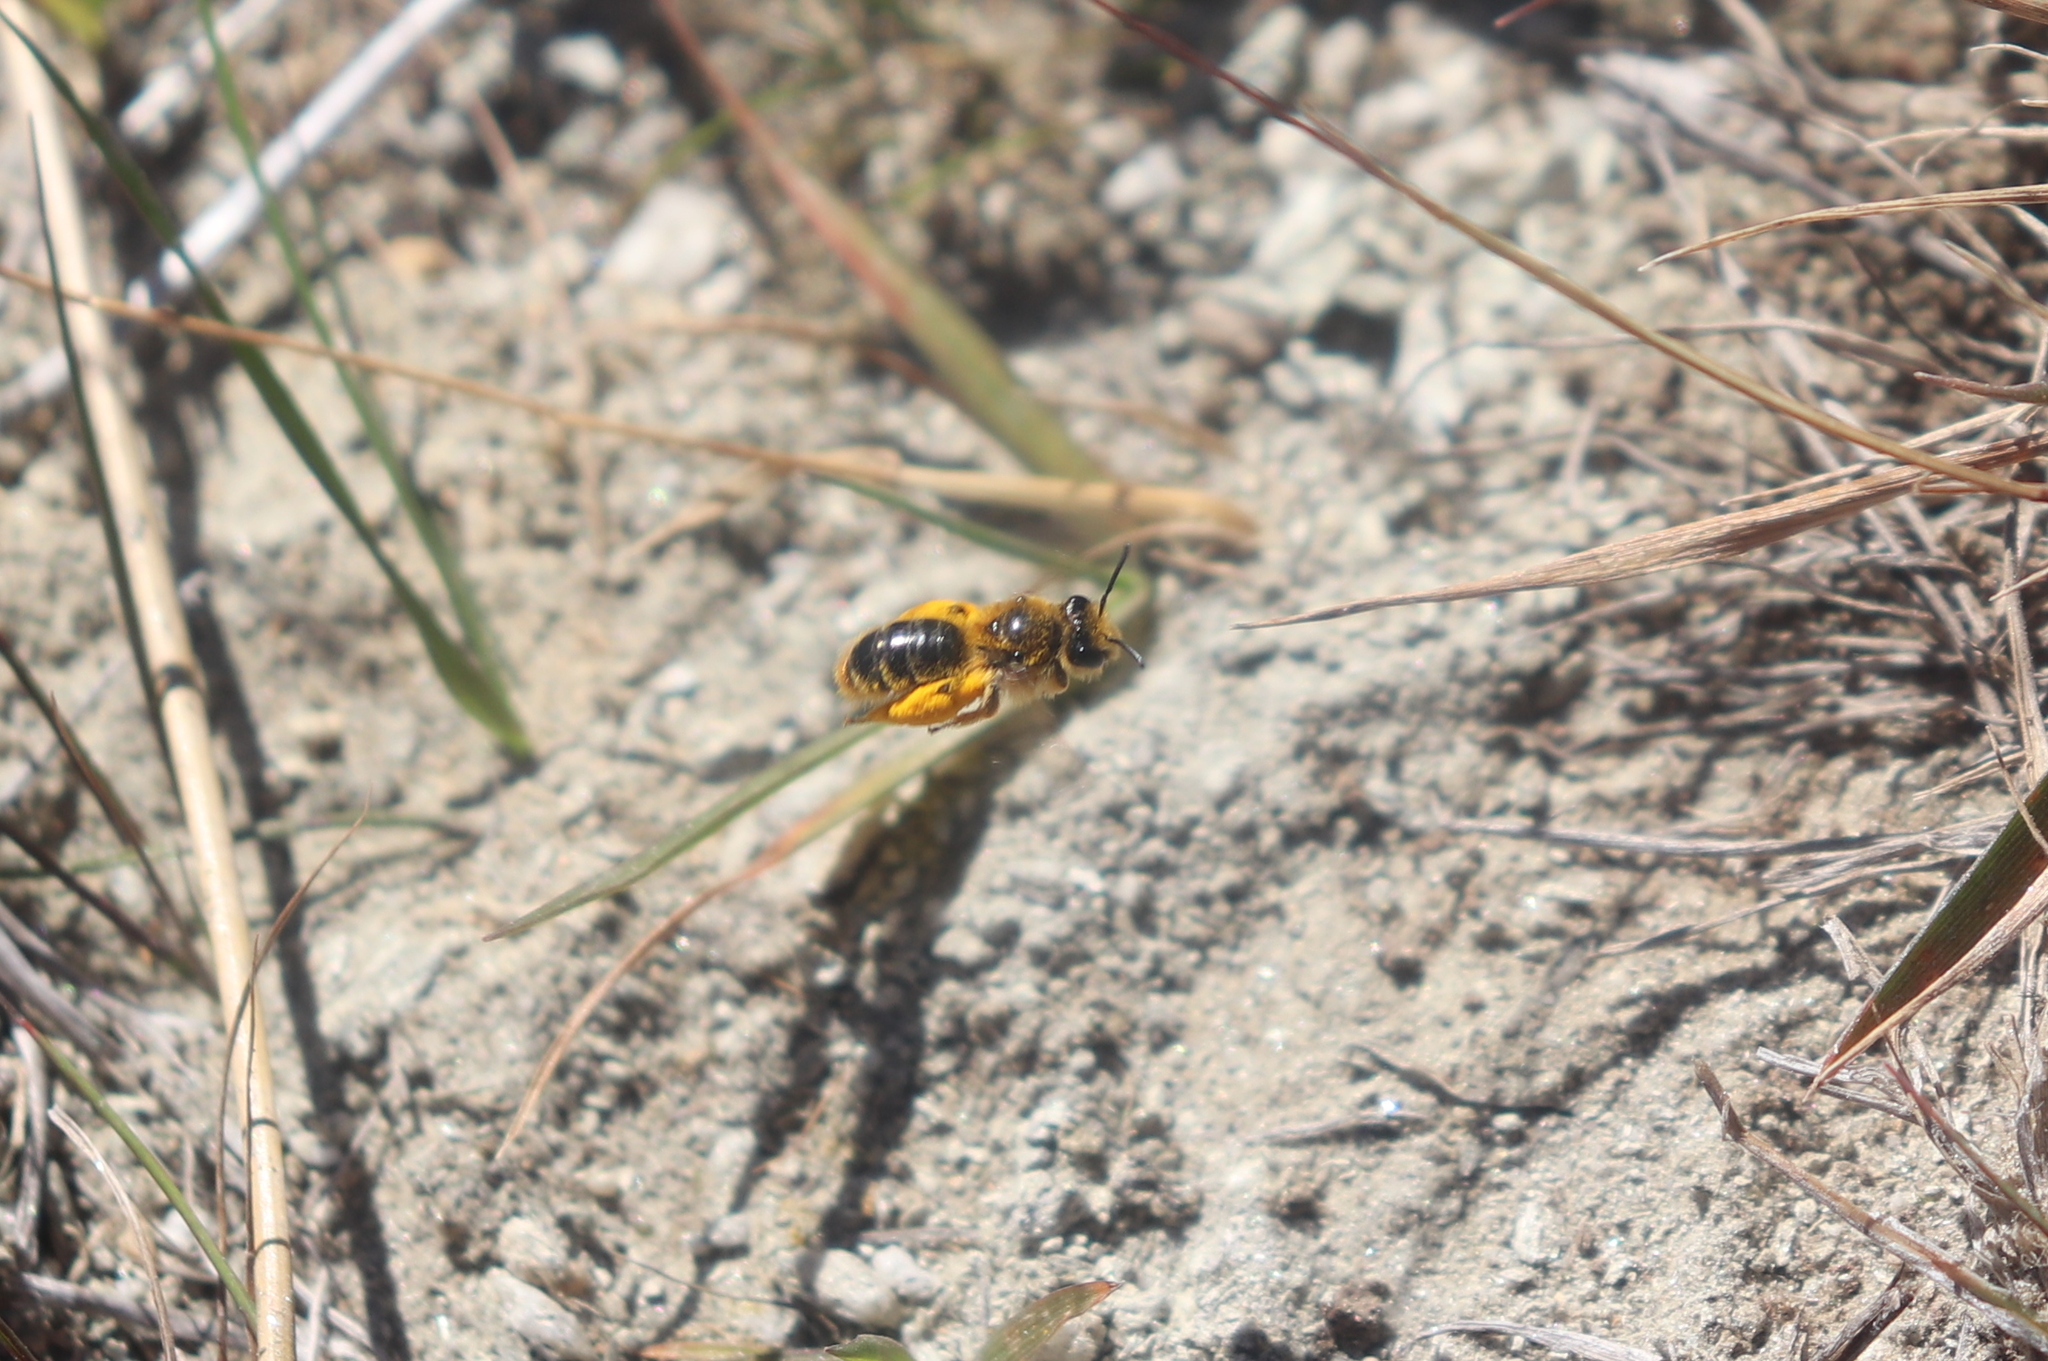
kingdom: Animalia
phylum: Arthropoda
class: Insecta
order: Hymenoptera
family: Colletidae
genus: Leioproctus
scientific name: Leioproctus fulvescens
